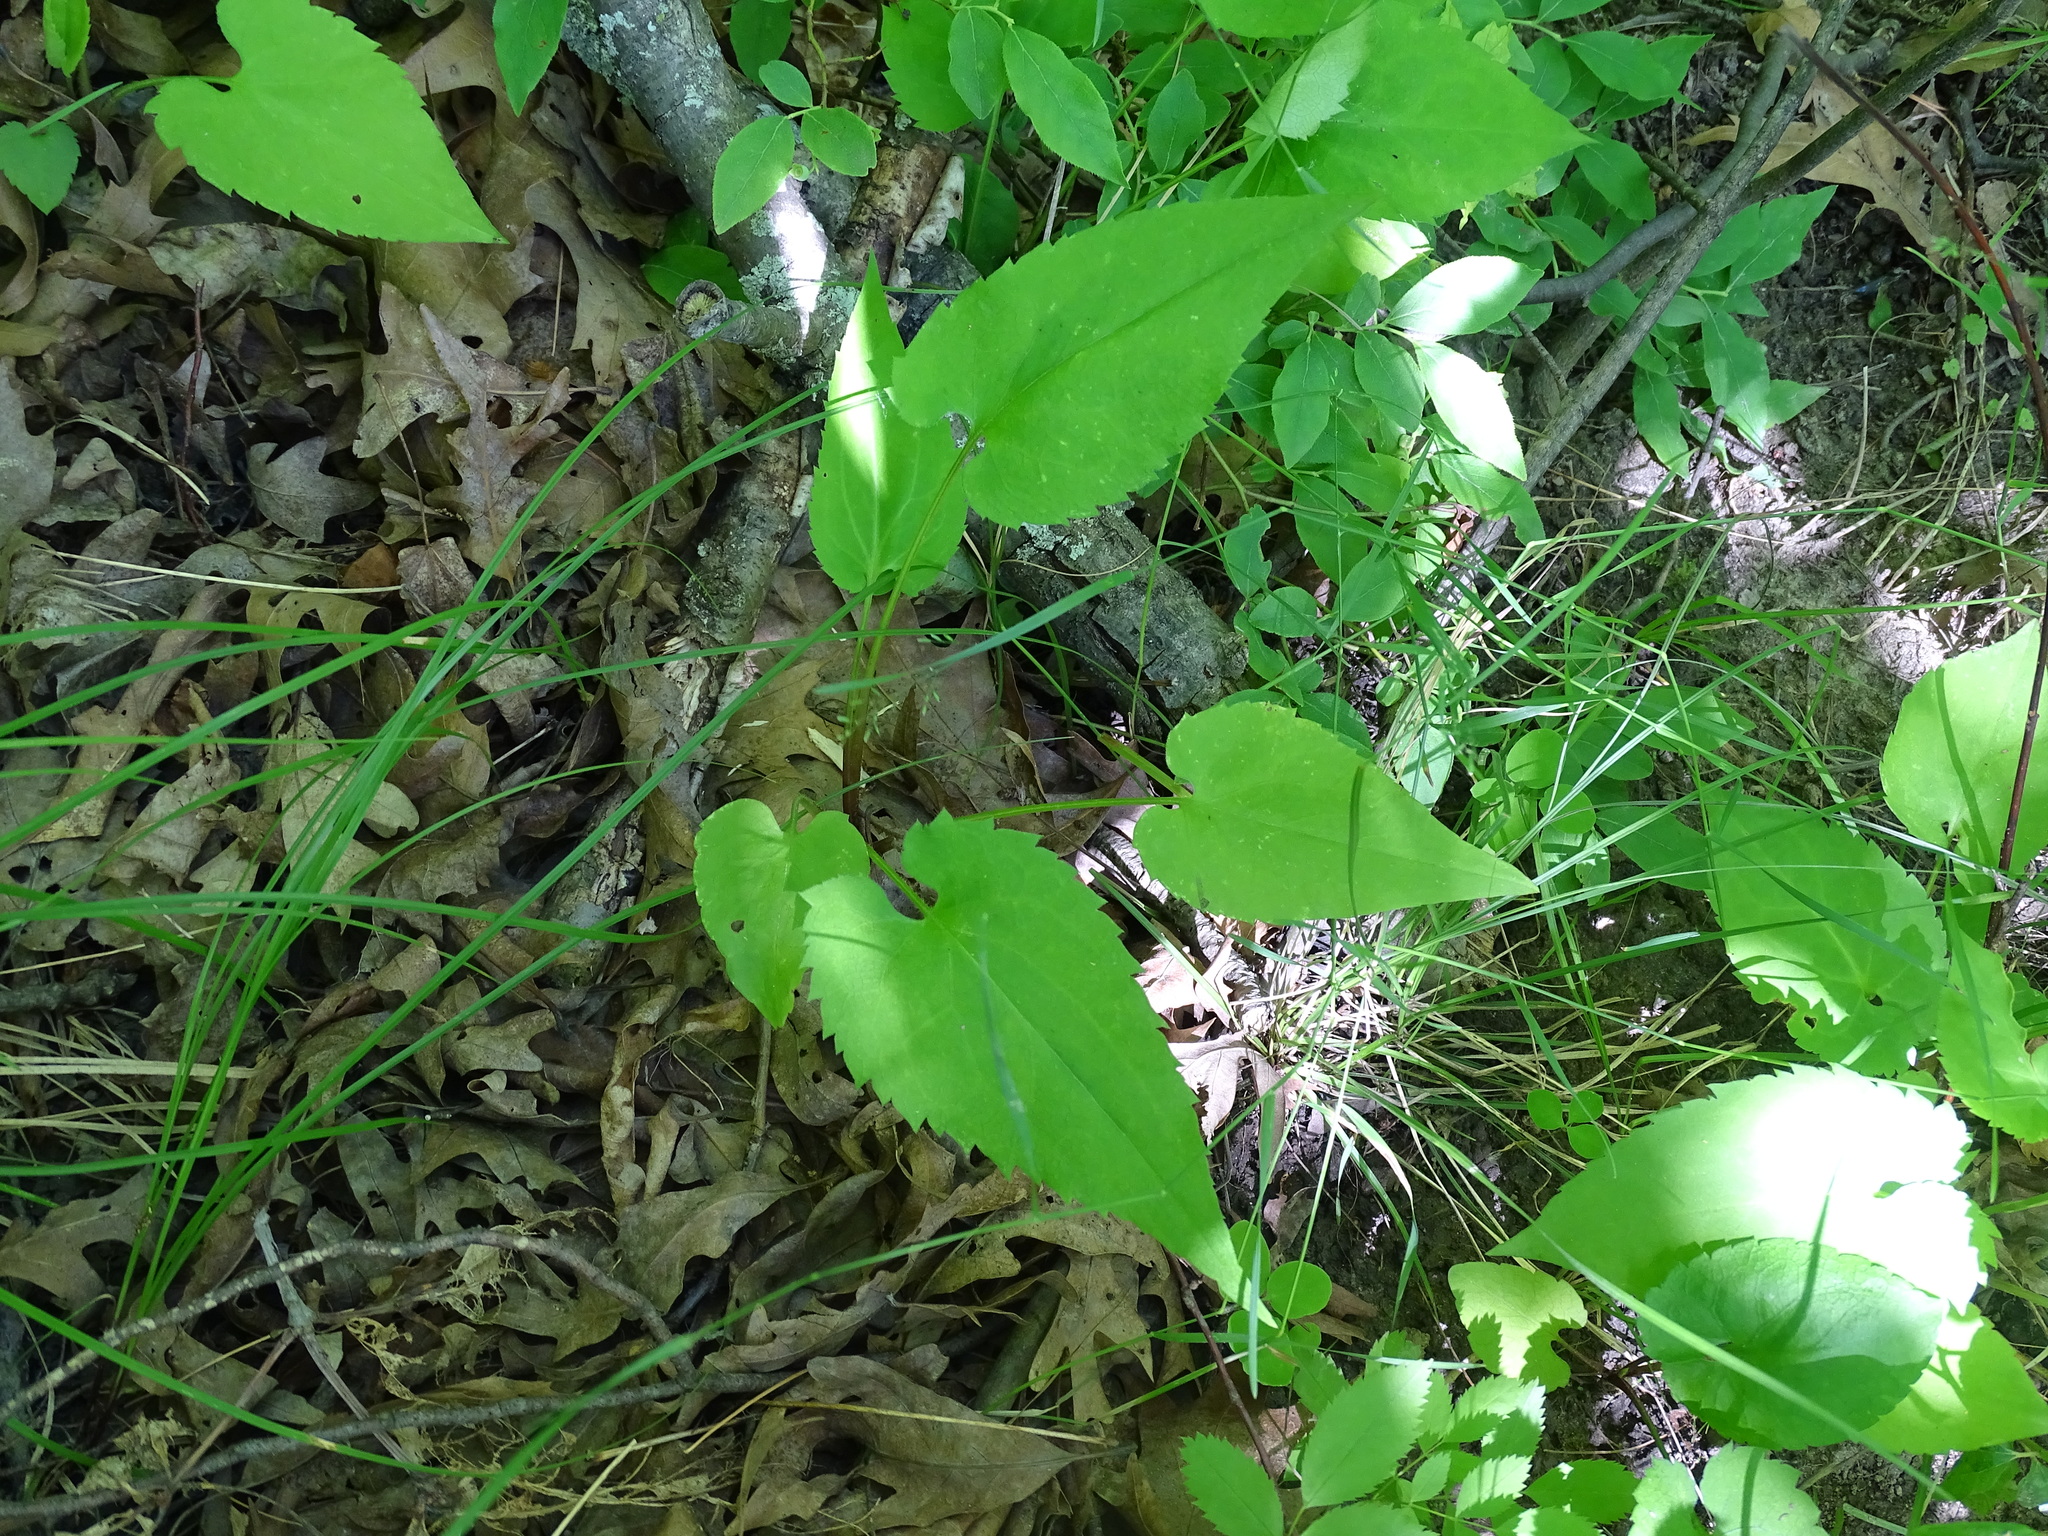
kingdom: Plantae
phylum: Tracheophyta
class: Magnoliopsida
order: Asterales
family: Asteraceae
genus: Symphyotrichum
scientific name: Symphyotrichum cordifolium
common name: Beeweed
